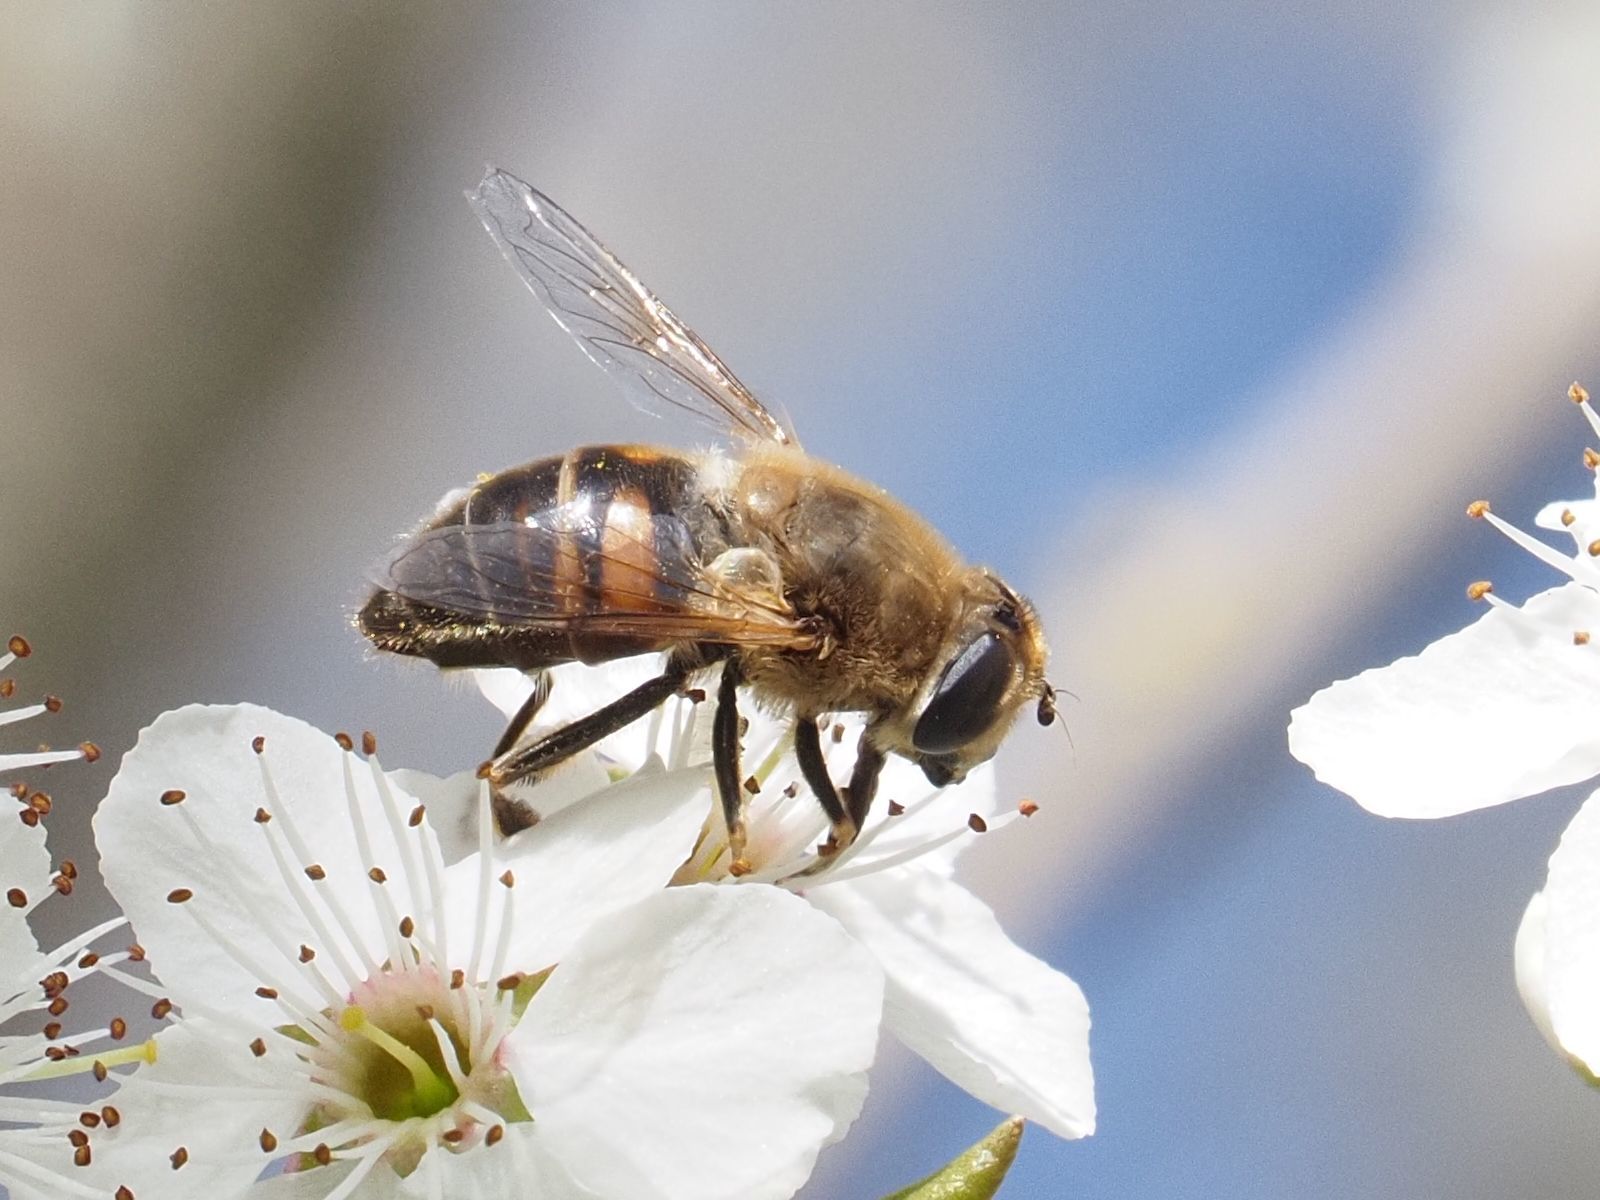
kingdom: Animalia
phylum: Arthropoda
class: Insecta
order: Diptera
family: Syrphidae
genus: Eristalis
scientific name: Eristalis tenax
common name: Drone fly
